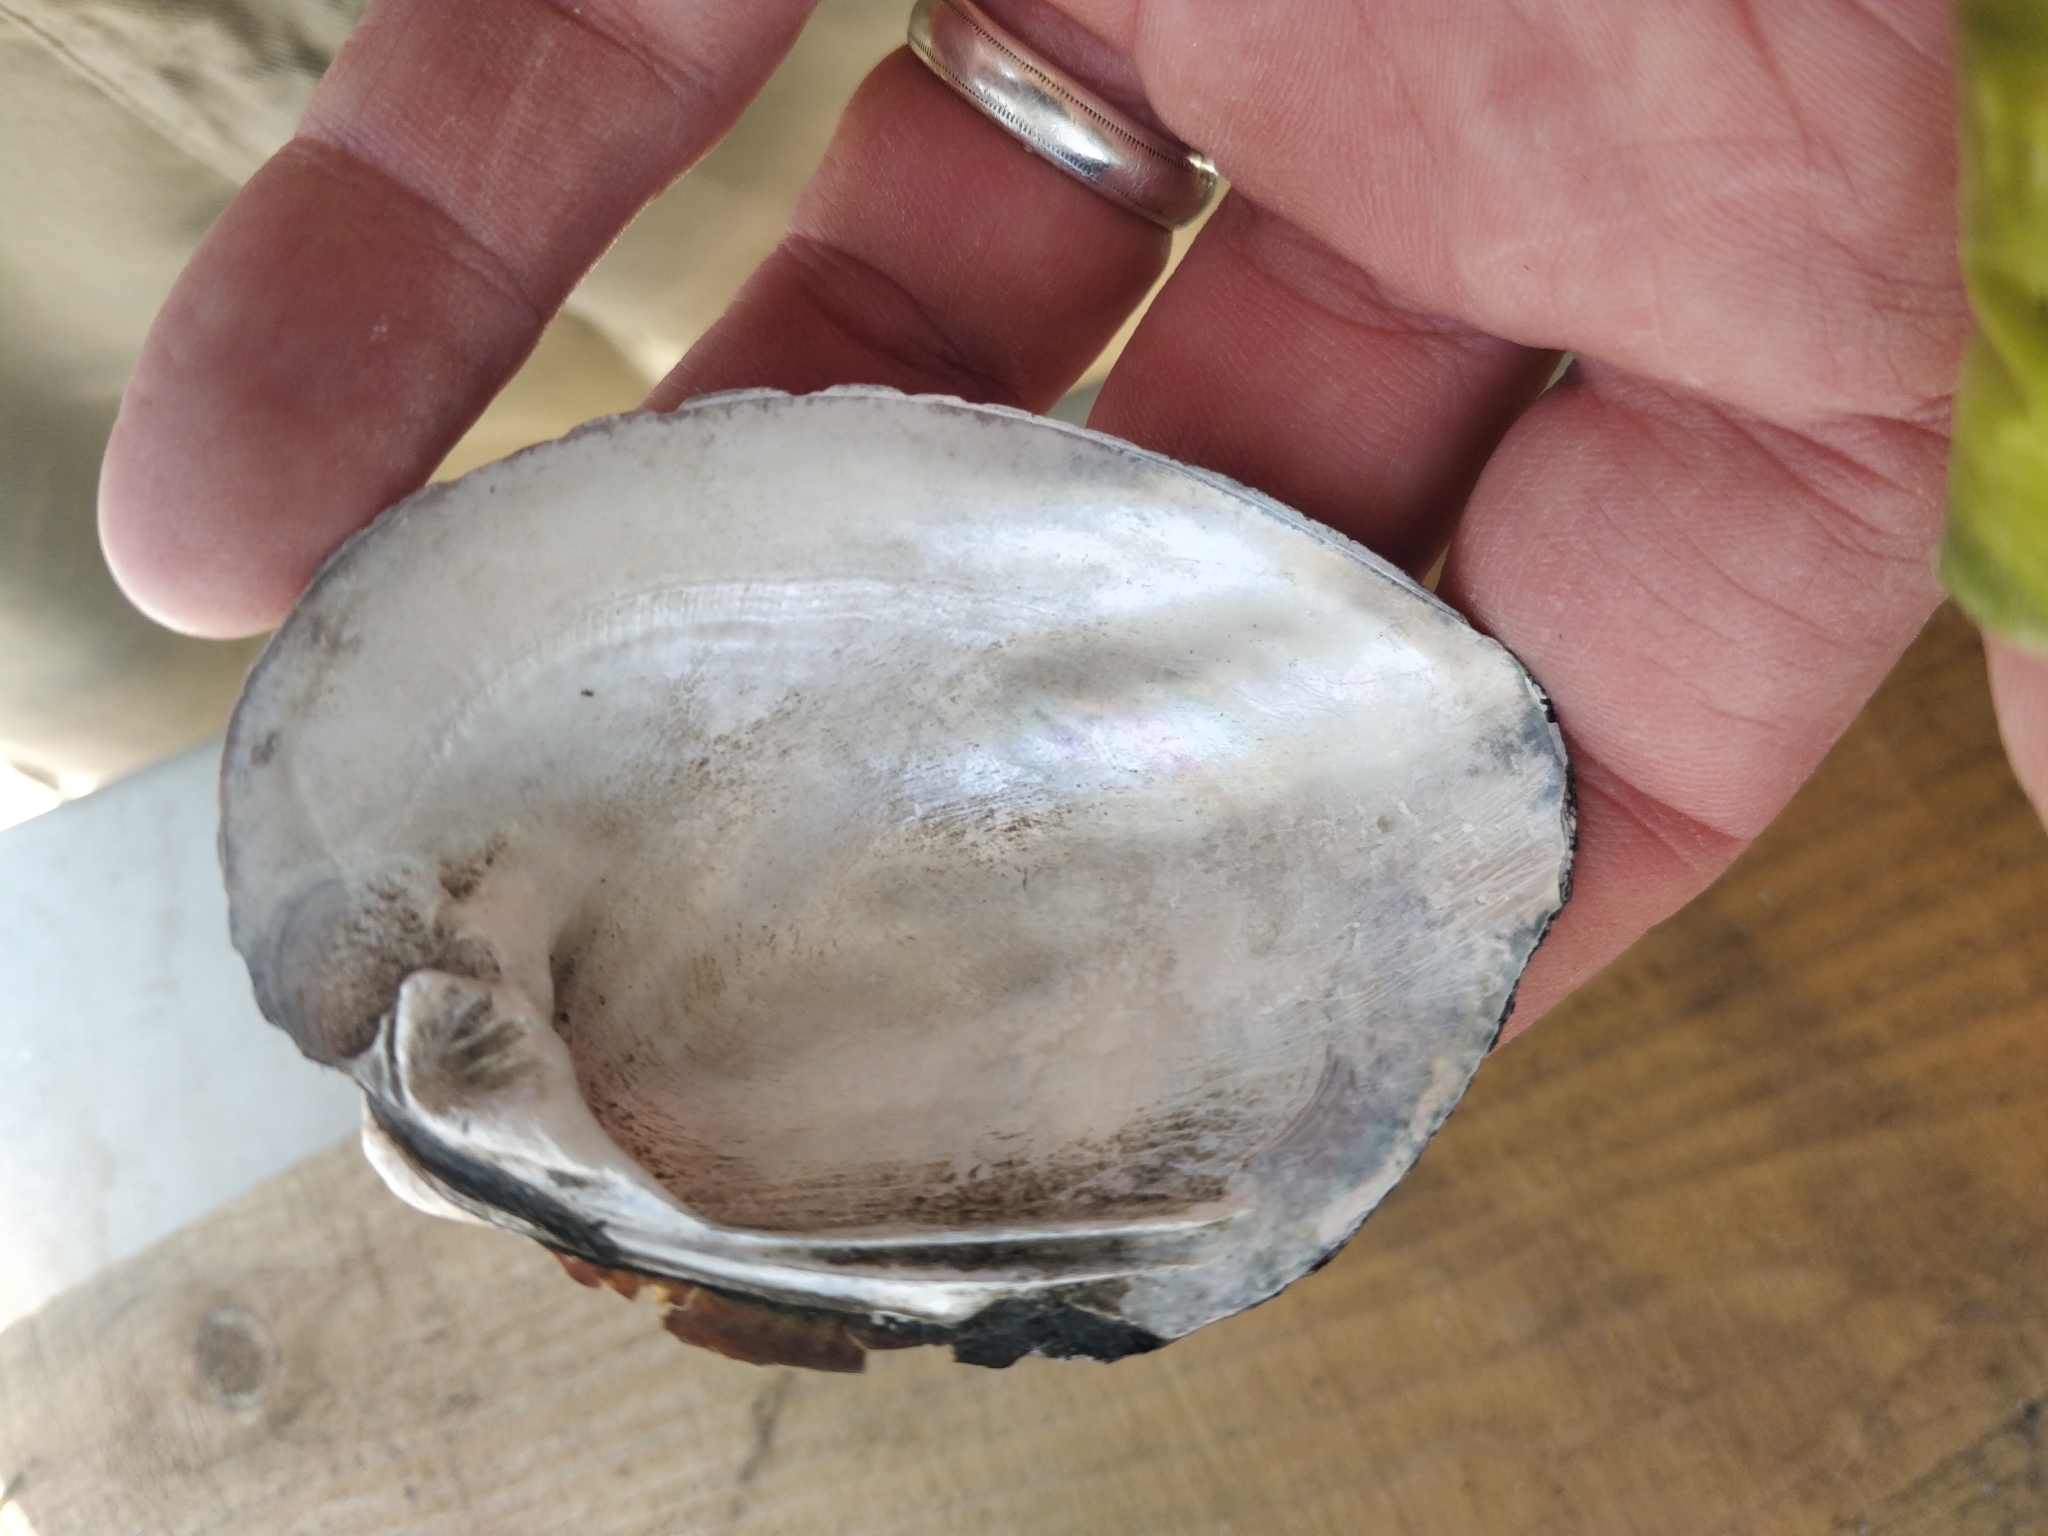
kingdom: Animalia
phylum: Mollusca
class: Bivalvia
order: Unionida
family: Unionidae
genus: Amblema
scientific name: Amblema plicata
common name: Threeridge
